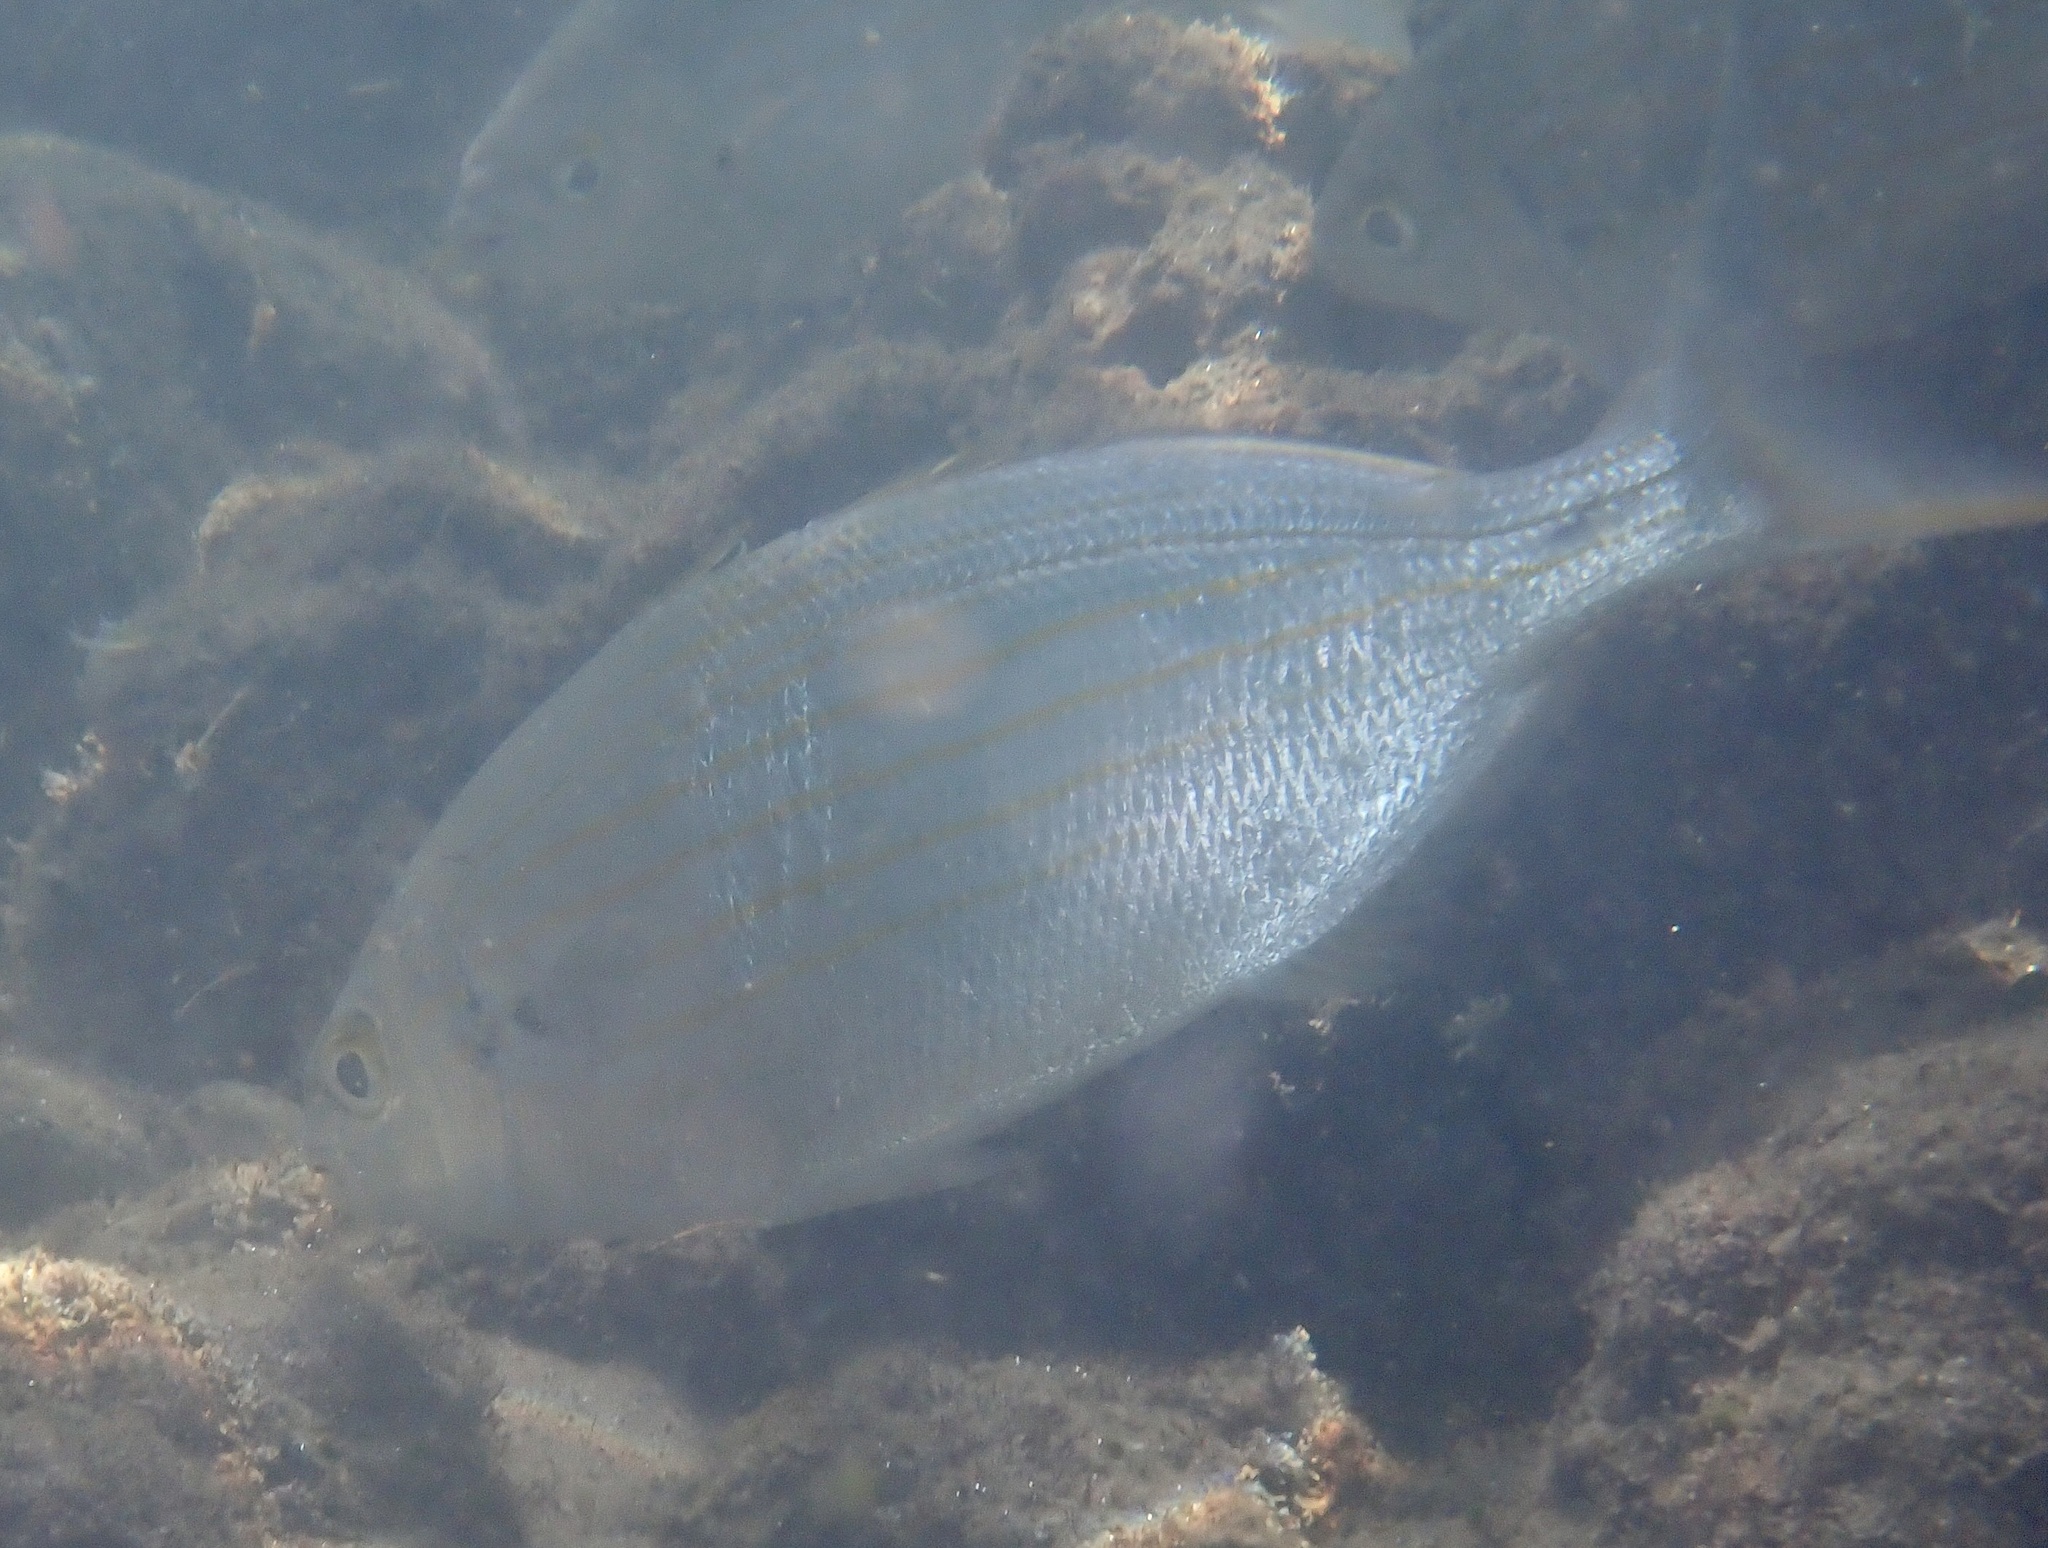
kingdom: Animalia
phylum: Chordata
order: Perciformes
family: Sparidae
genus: Sarpa
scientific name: Sarpa salpa
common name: Salema
